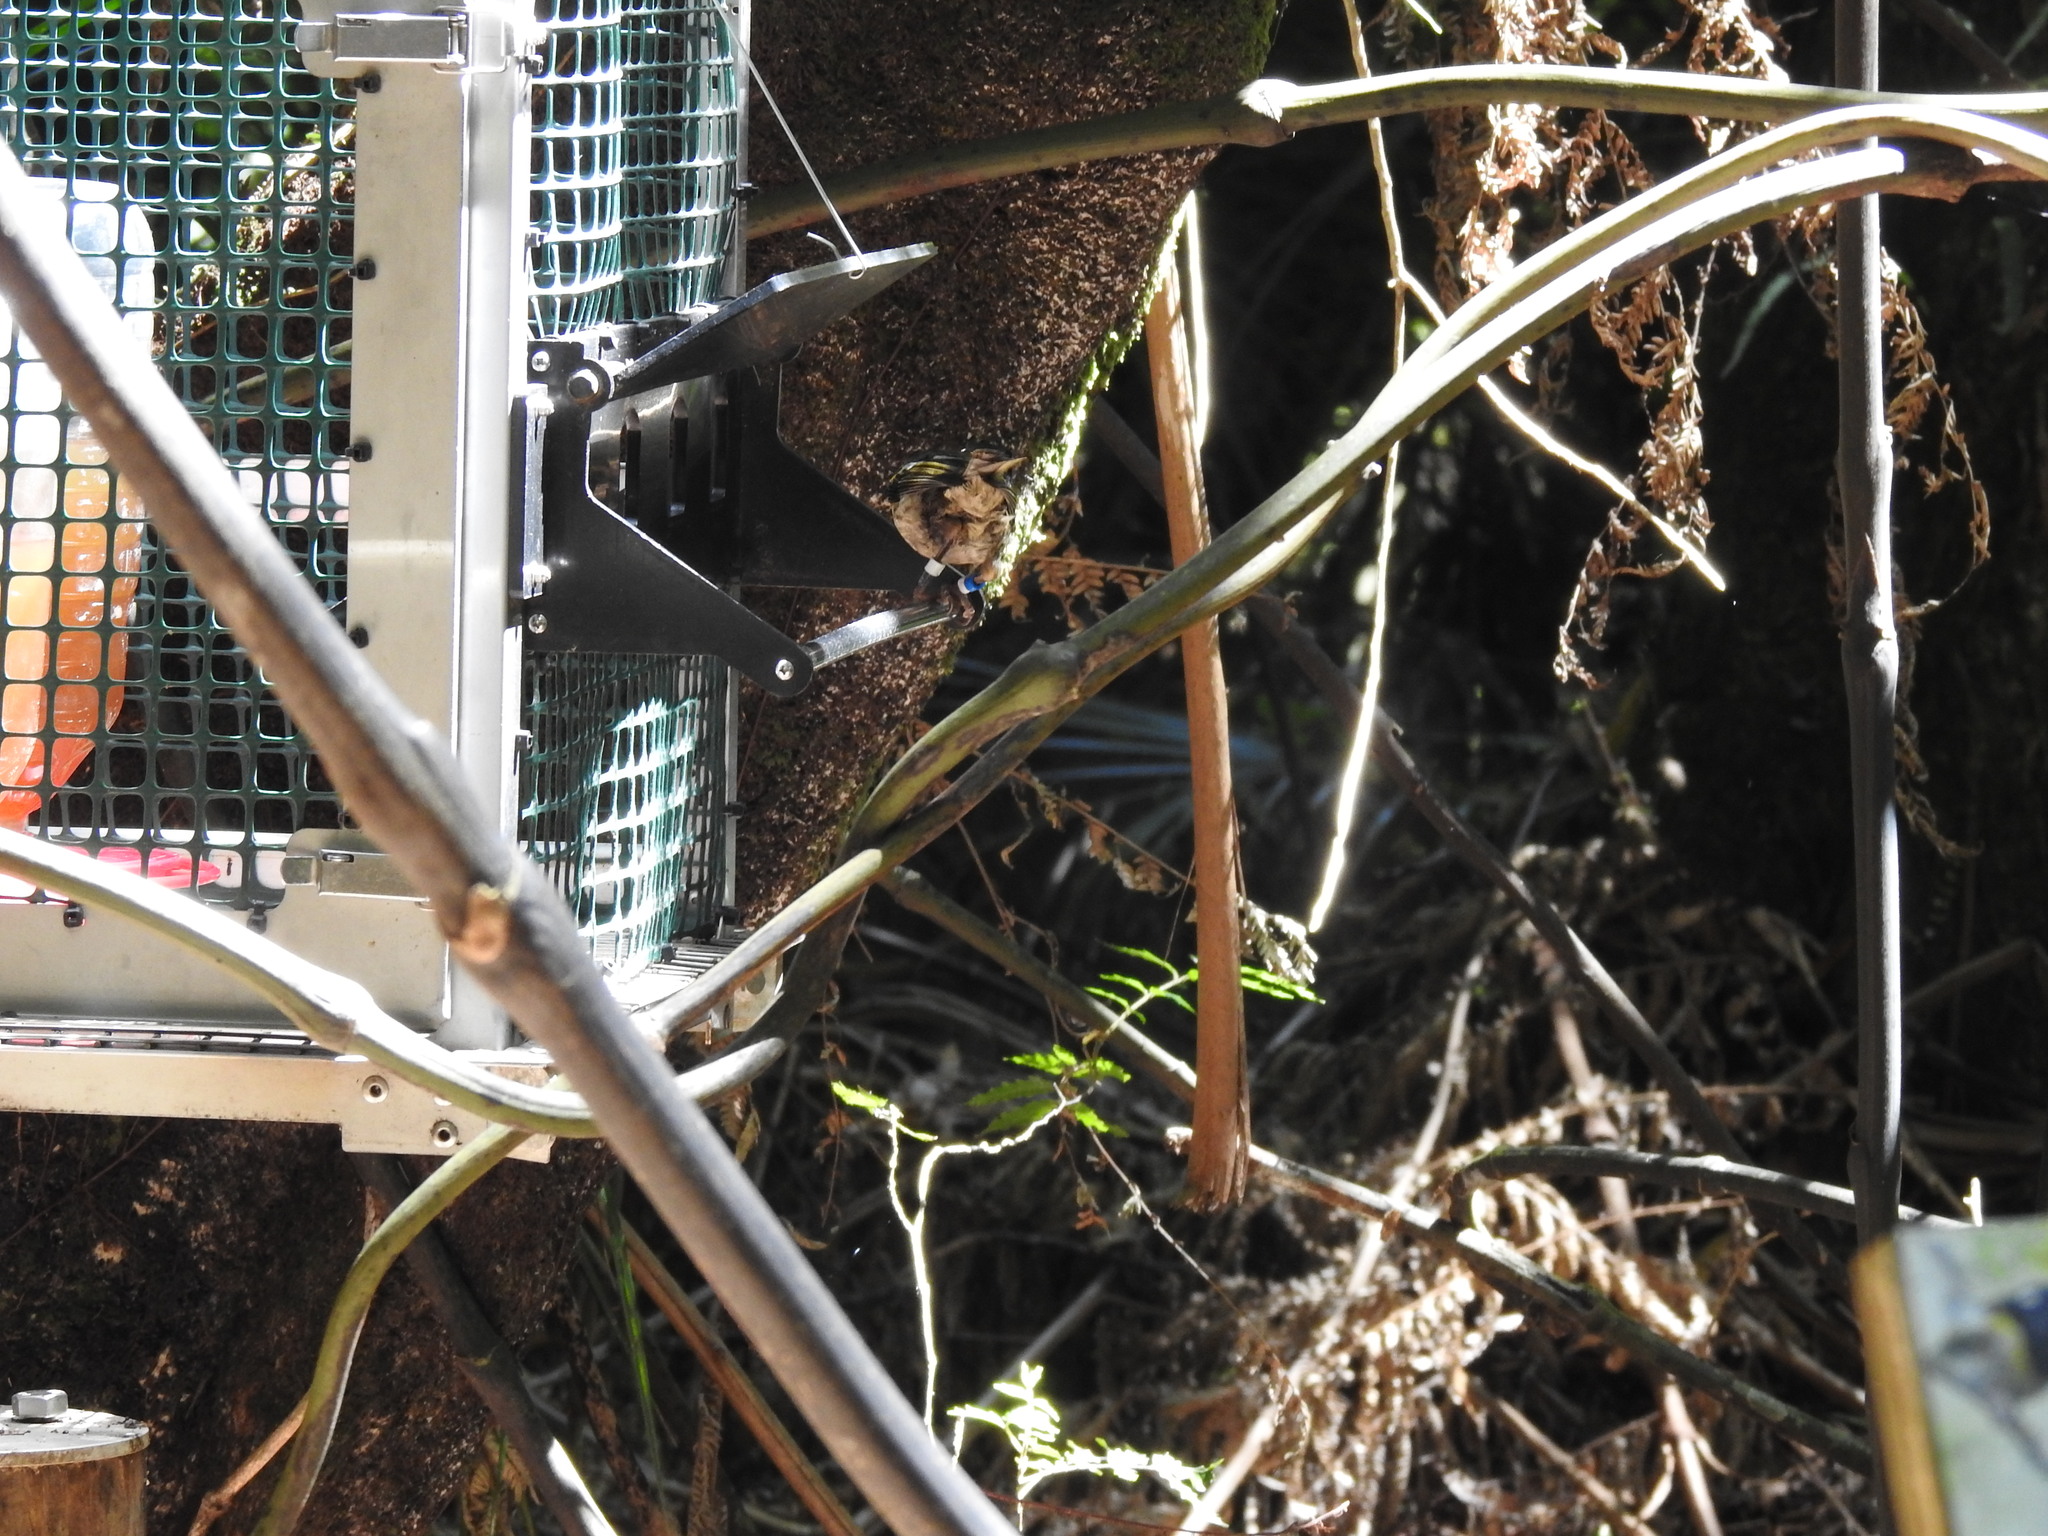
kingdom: Animalia
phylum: Chordata
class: Aves
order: Passeriformes
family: Notiomystidae
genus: Notiomystis
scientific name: Notiomystis cincta
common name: Stitchbird
